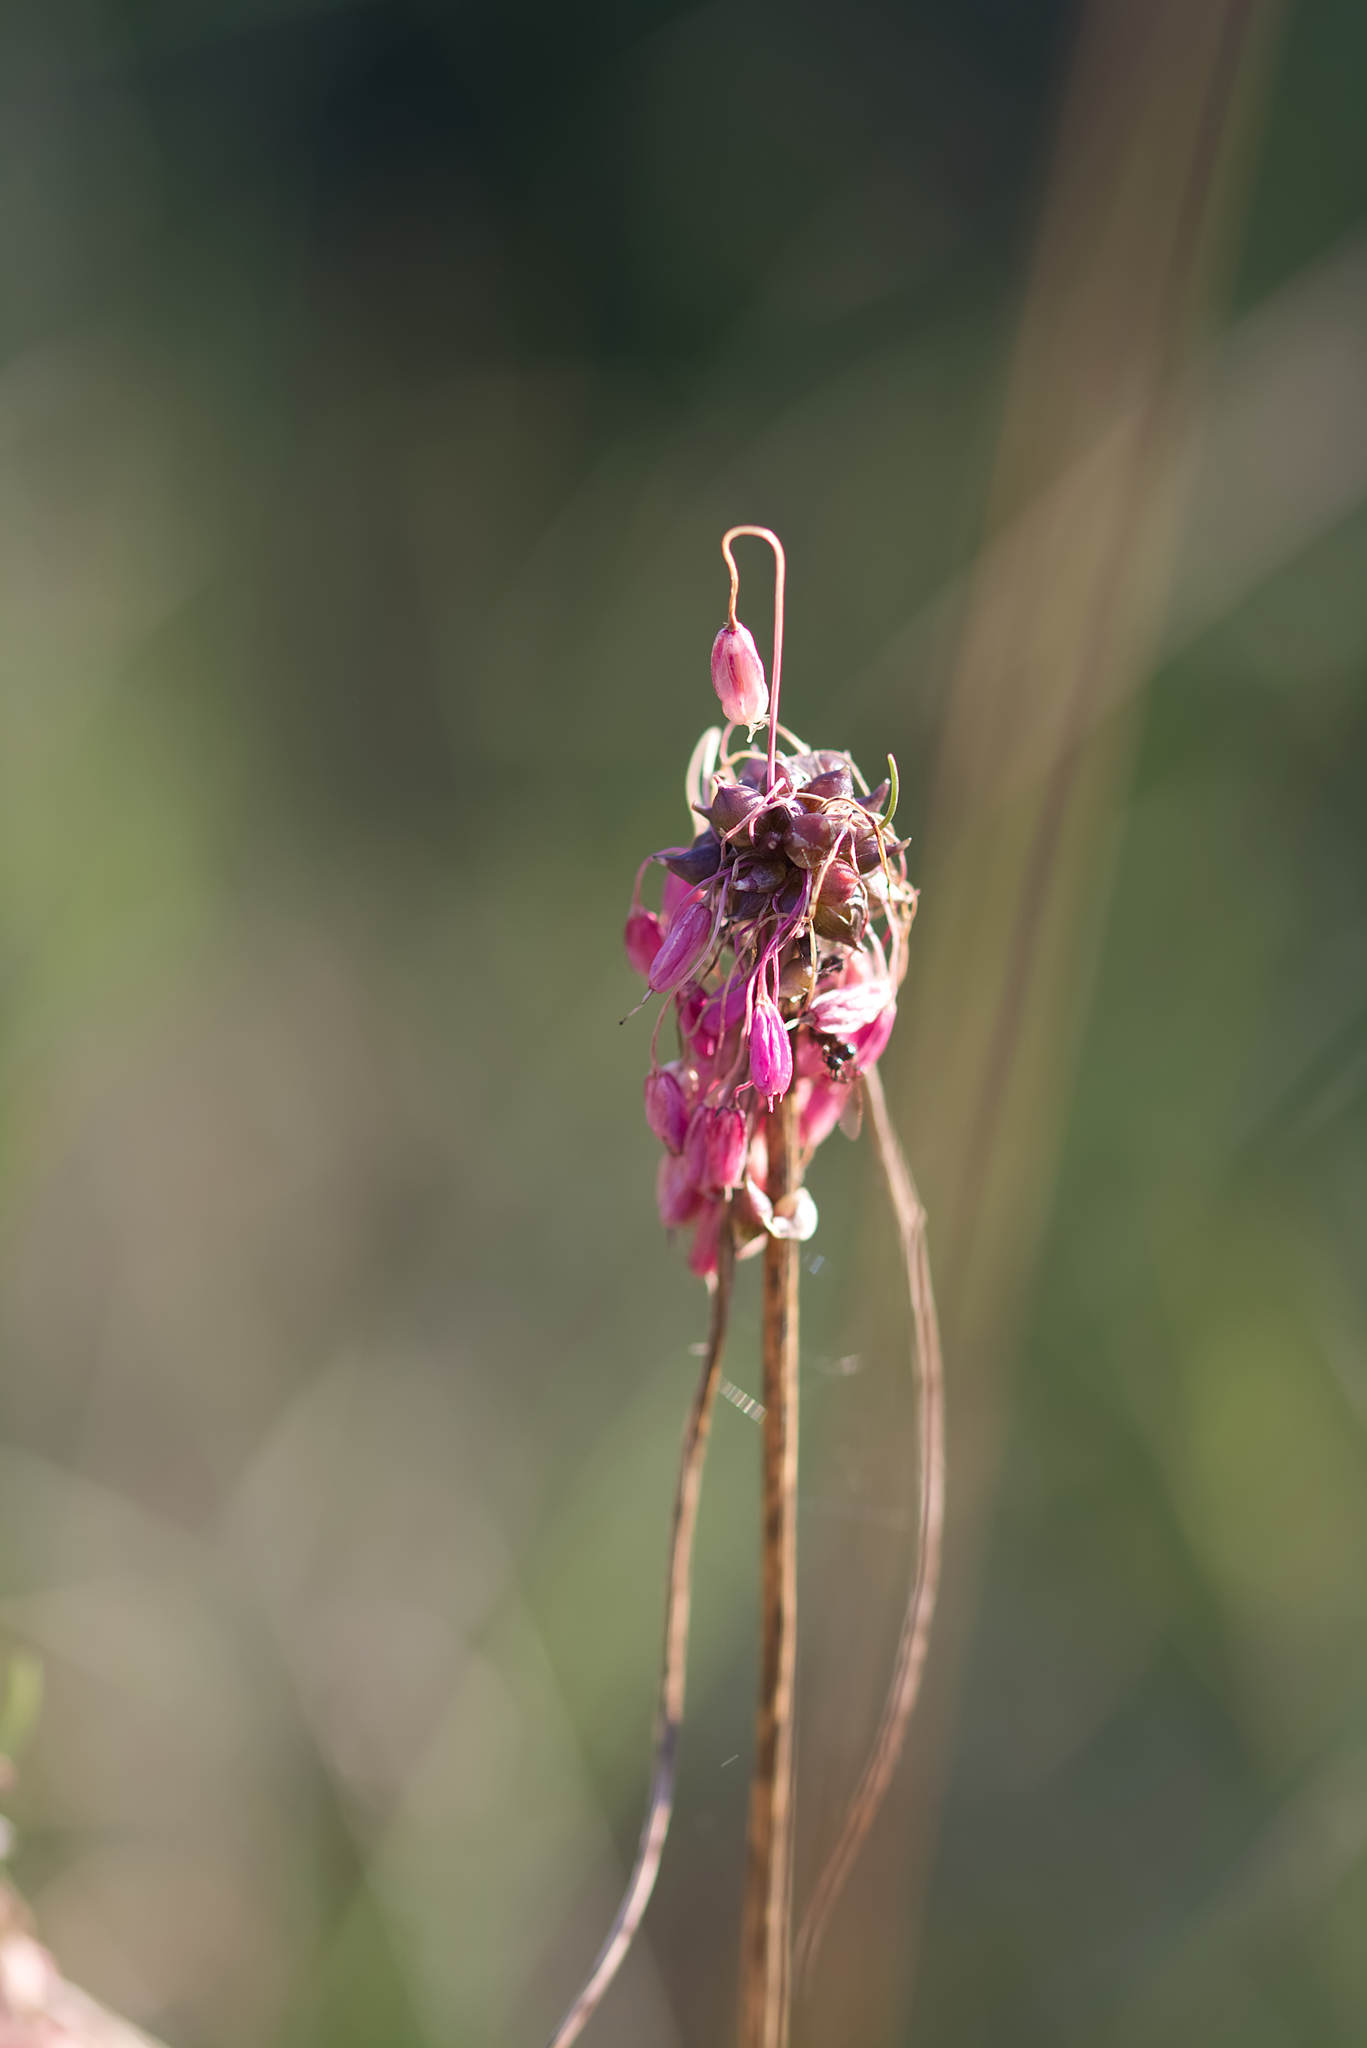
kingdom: Plantae
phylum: Tracheophyta
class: Liliopsida
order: Asparagales
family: Amaryllidaceae
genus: Allium
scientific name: Allium carinatum
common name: Keeled garlic
